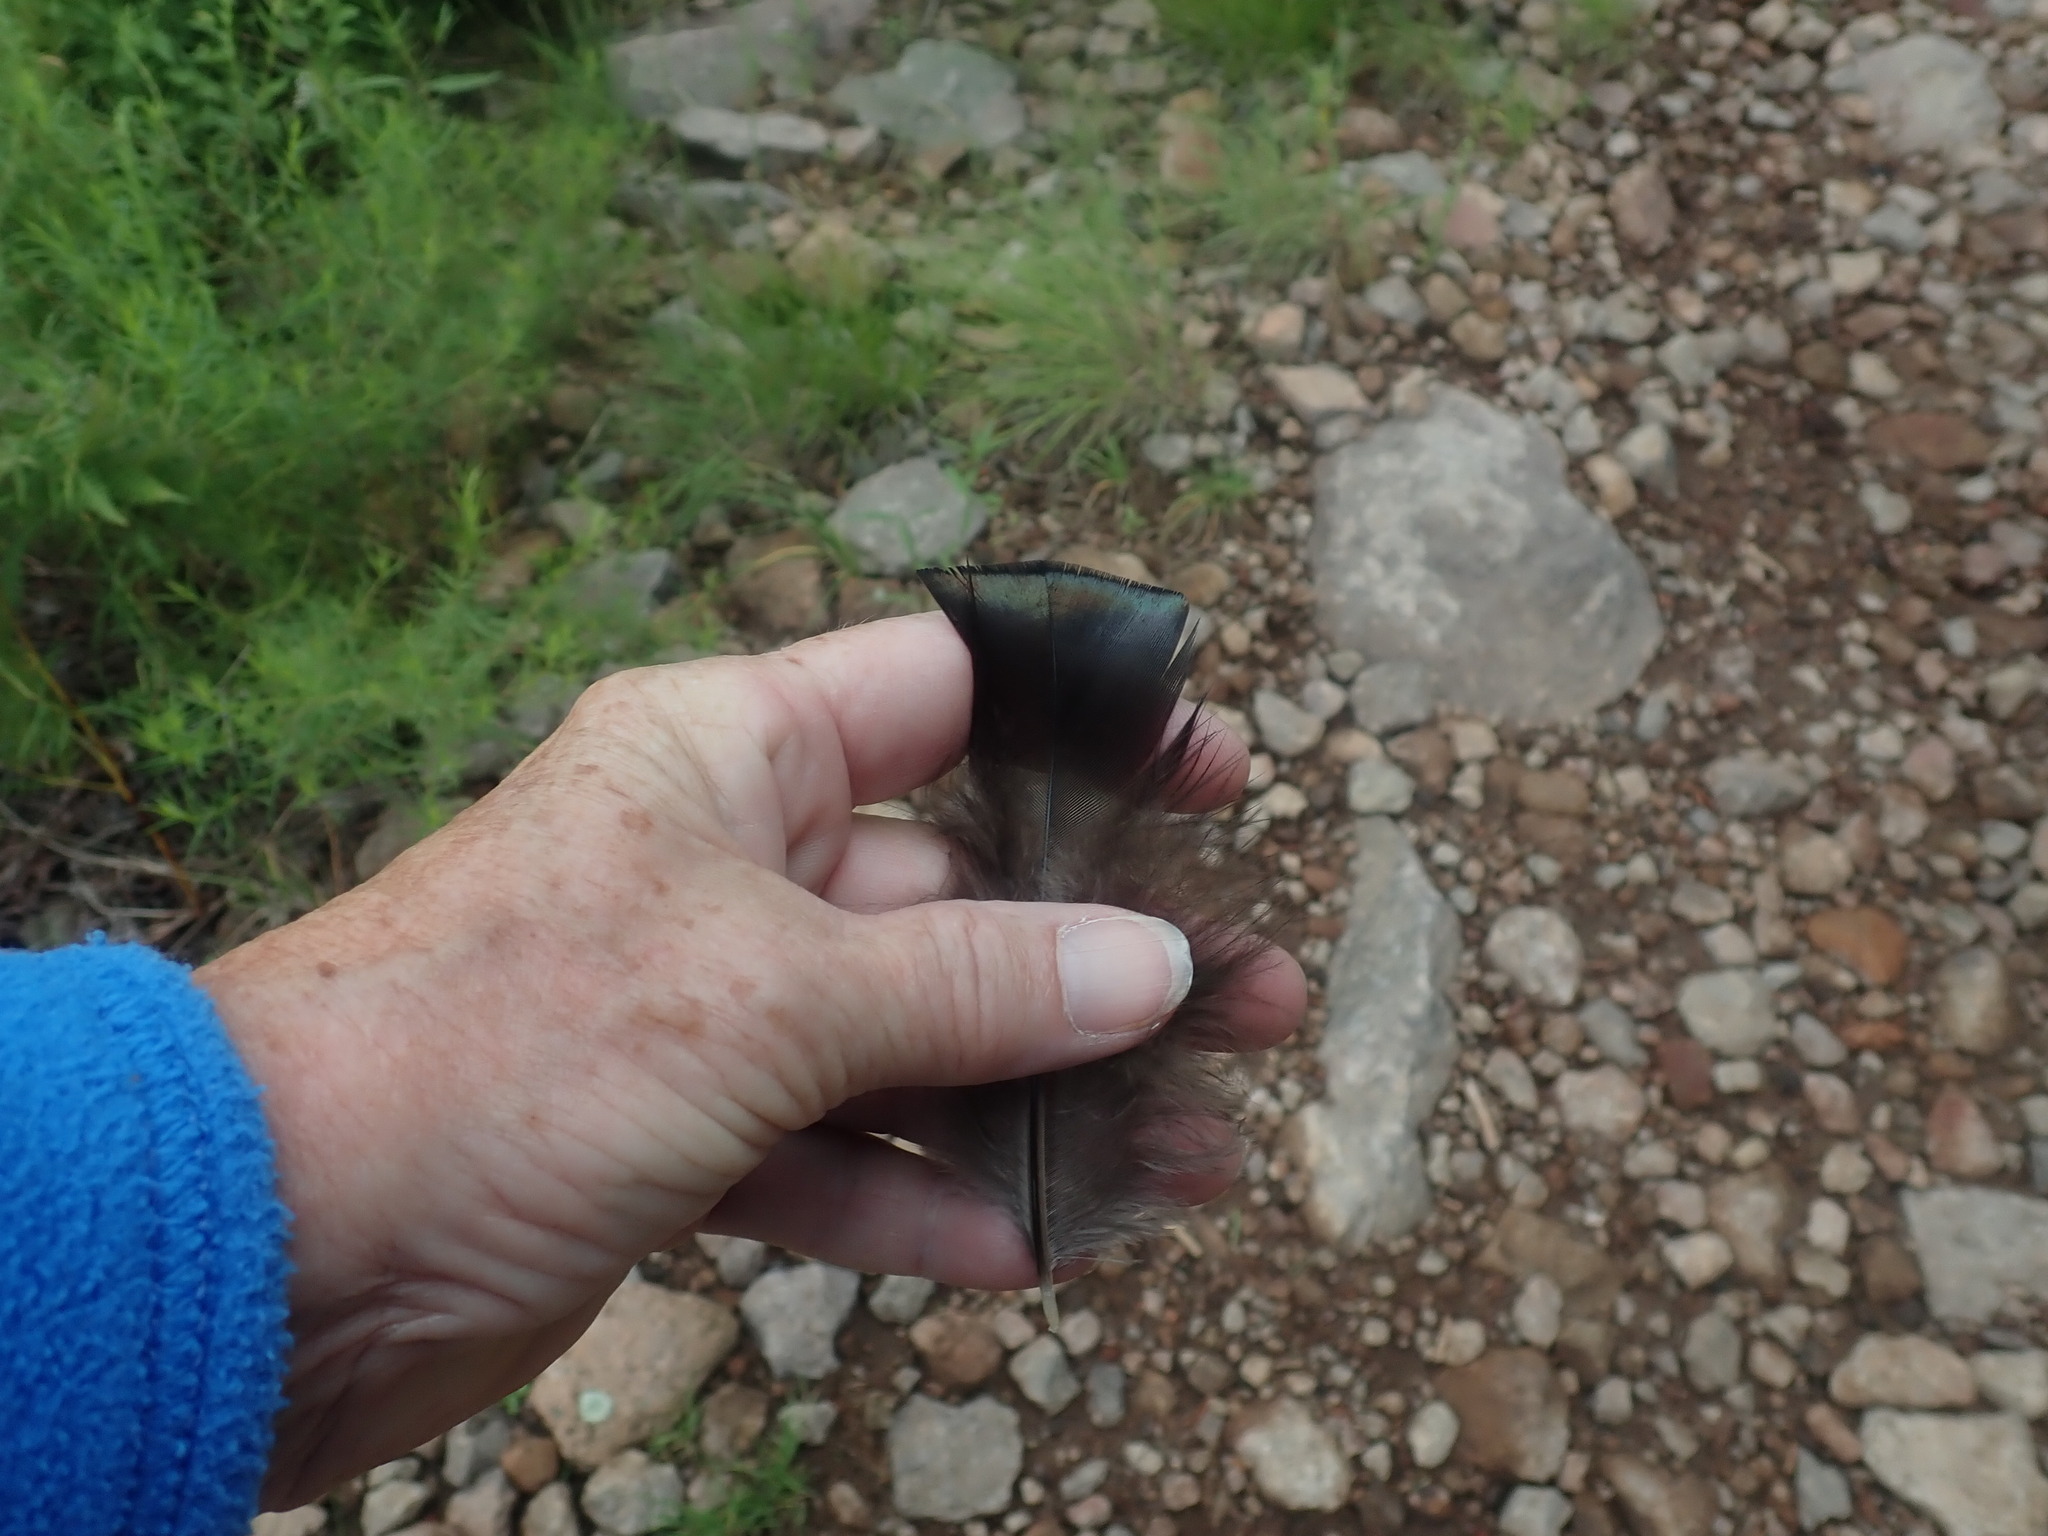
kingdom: Animalia
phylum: Chordata
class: Aves
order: Galliformes
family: Phasianidae
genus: Meleagris
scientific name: Meleagris gallopavo
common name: Wild turkey
